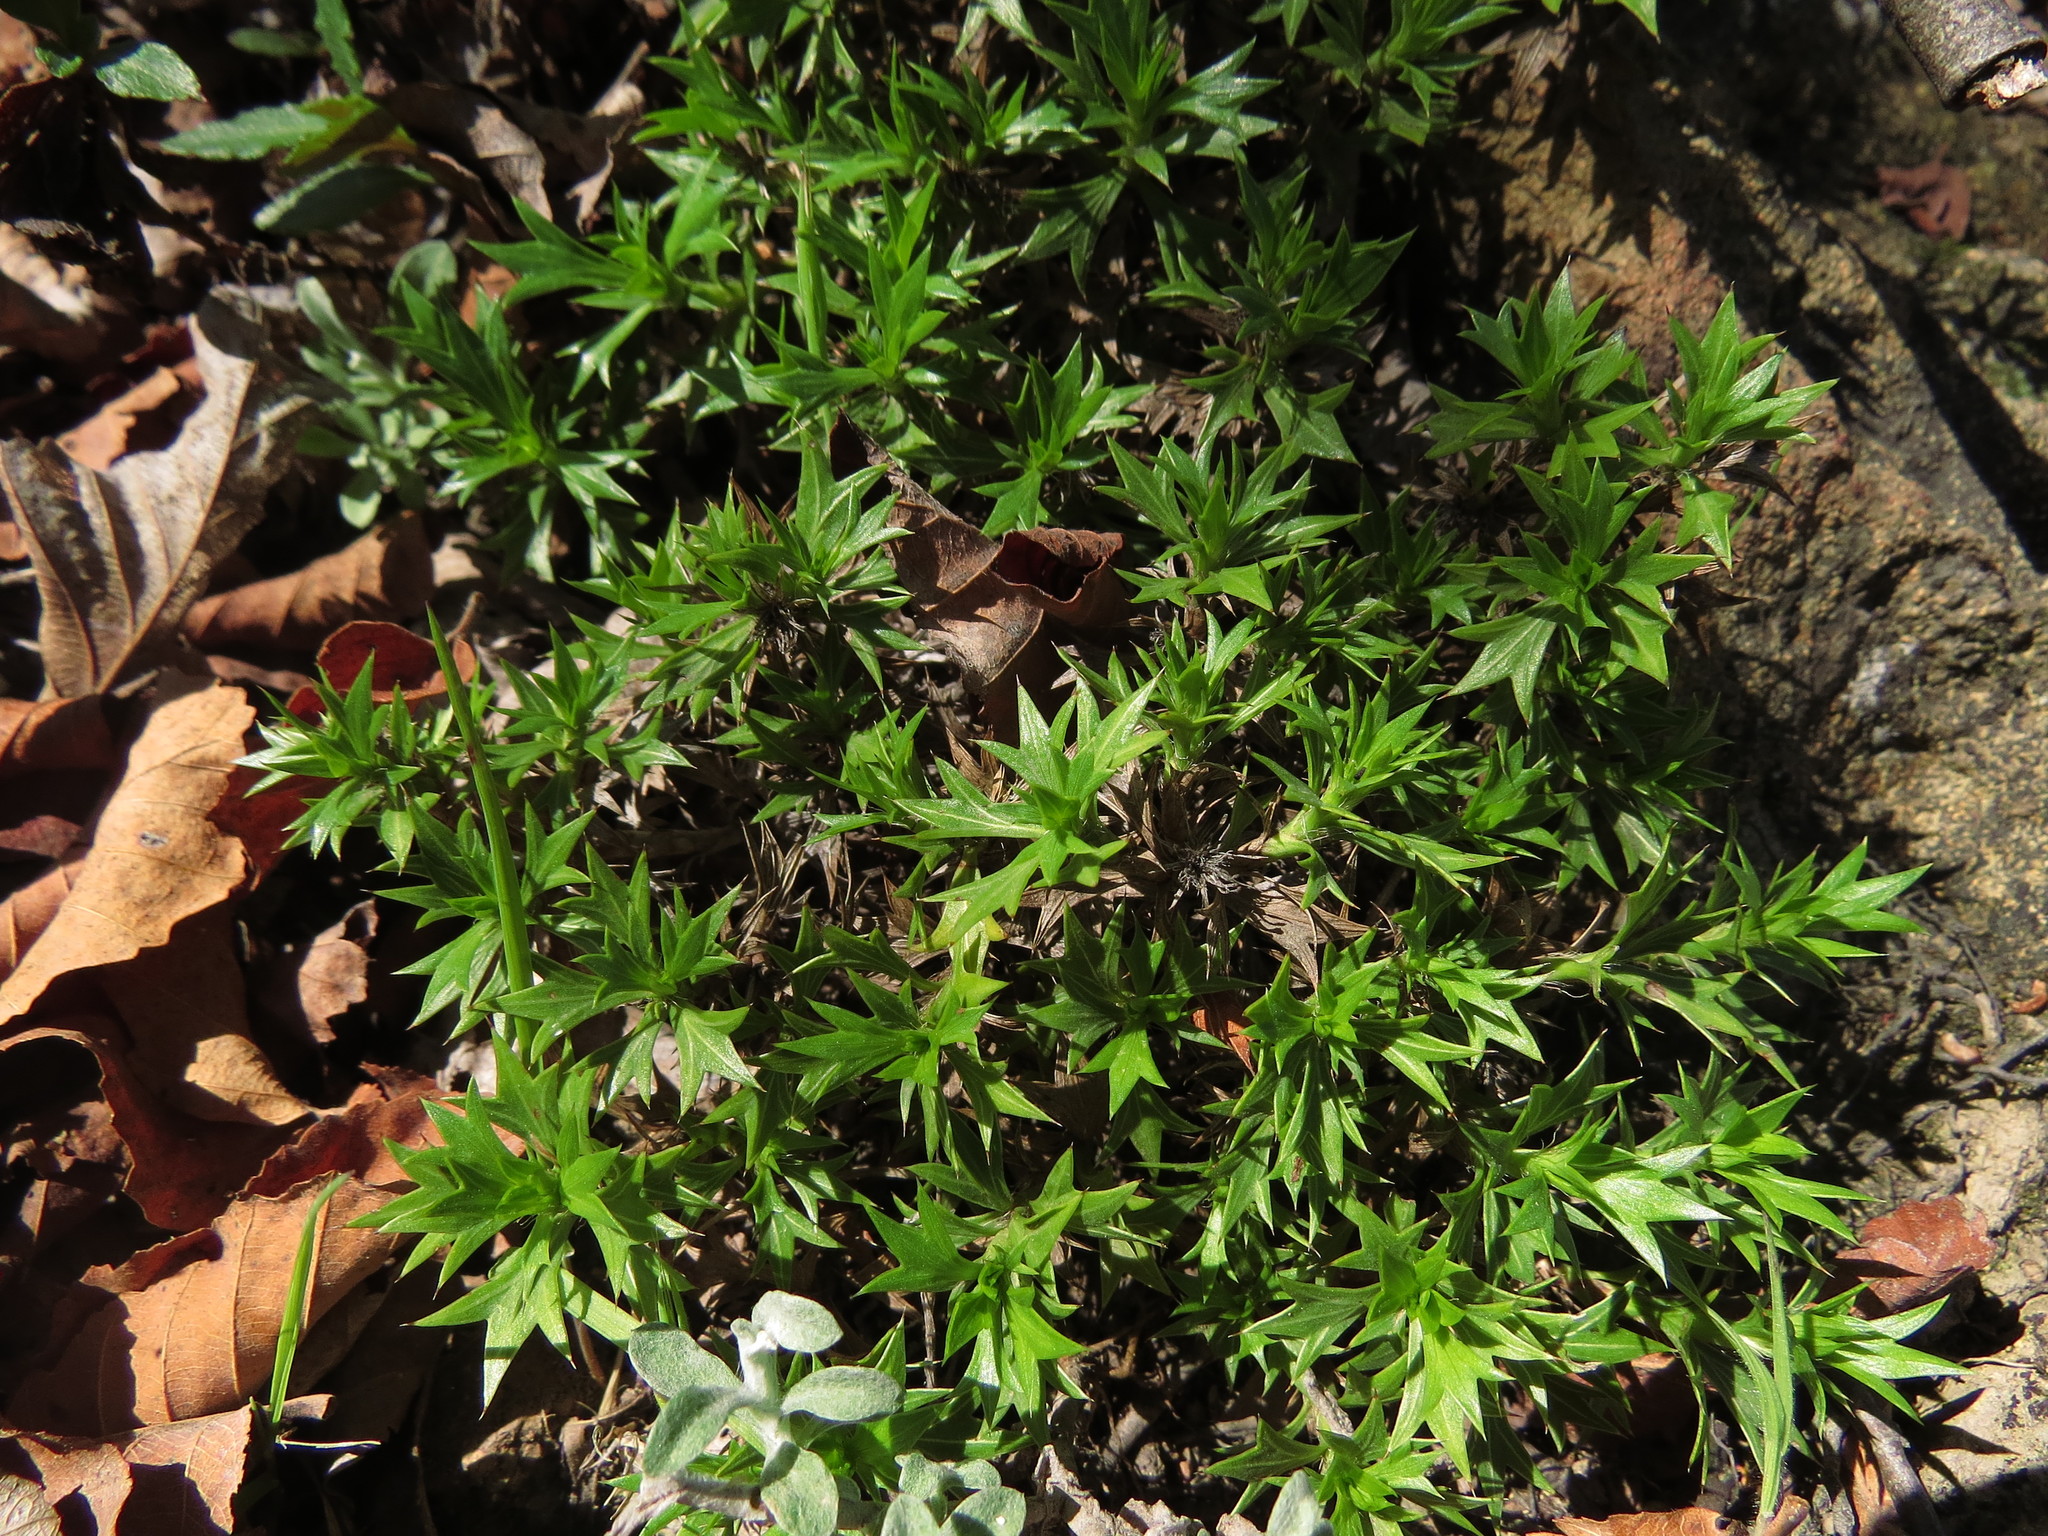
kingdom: Plantae
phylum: Tracheophyta
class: Magnoliopsida
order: Apiales
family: Apiaceae
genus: Azorella
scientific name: Azorella spinosa
